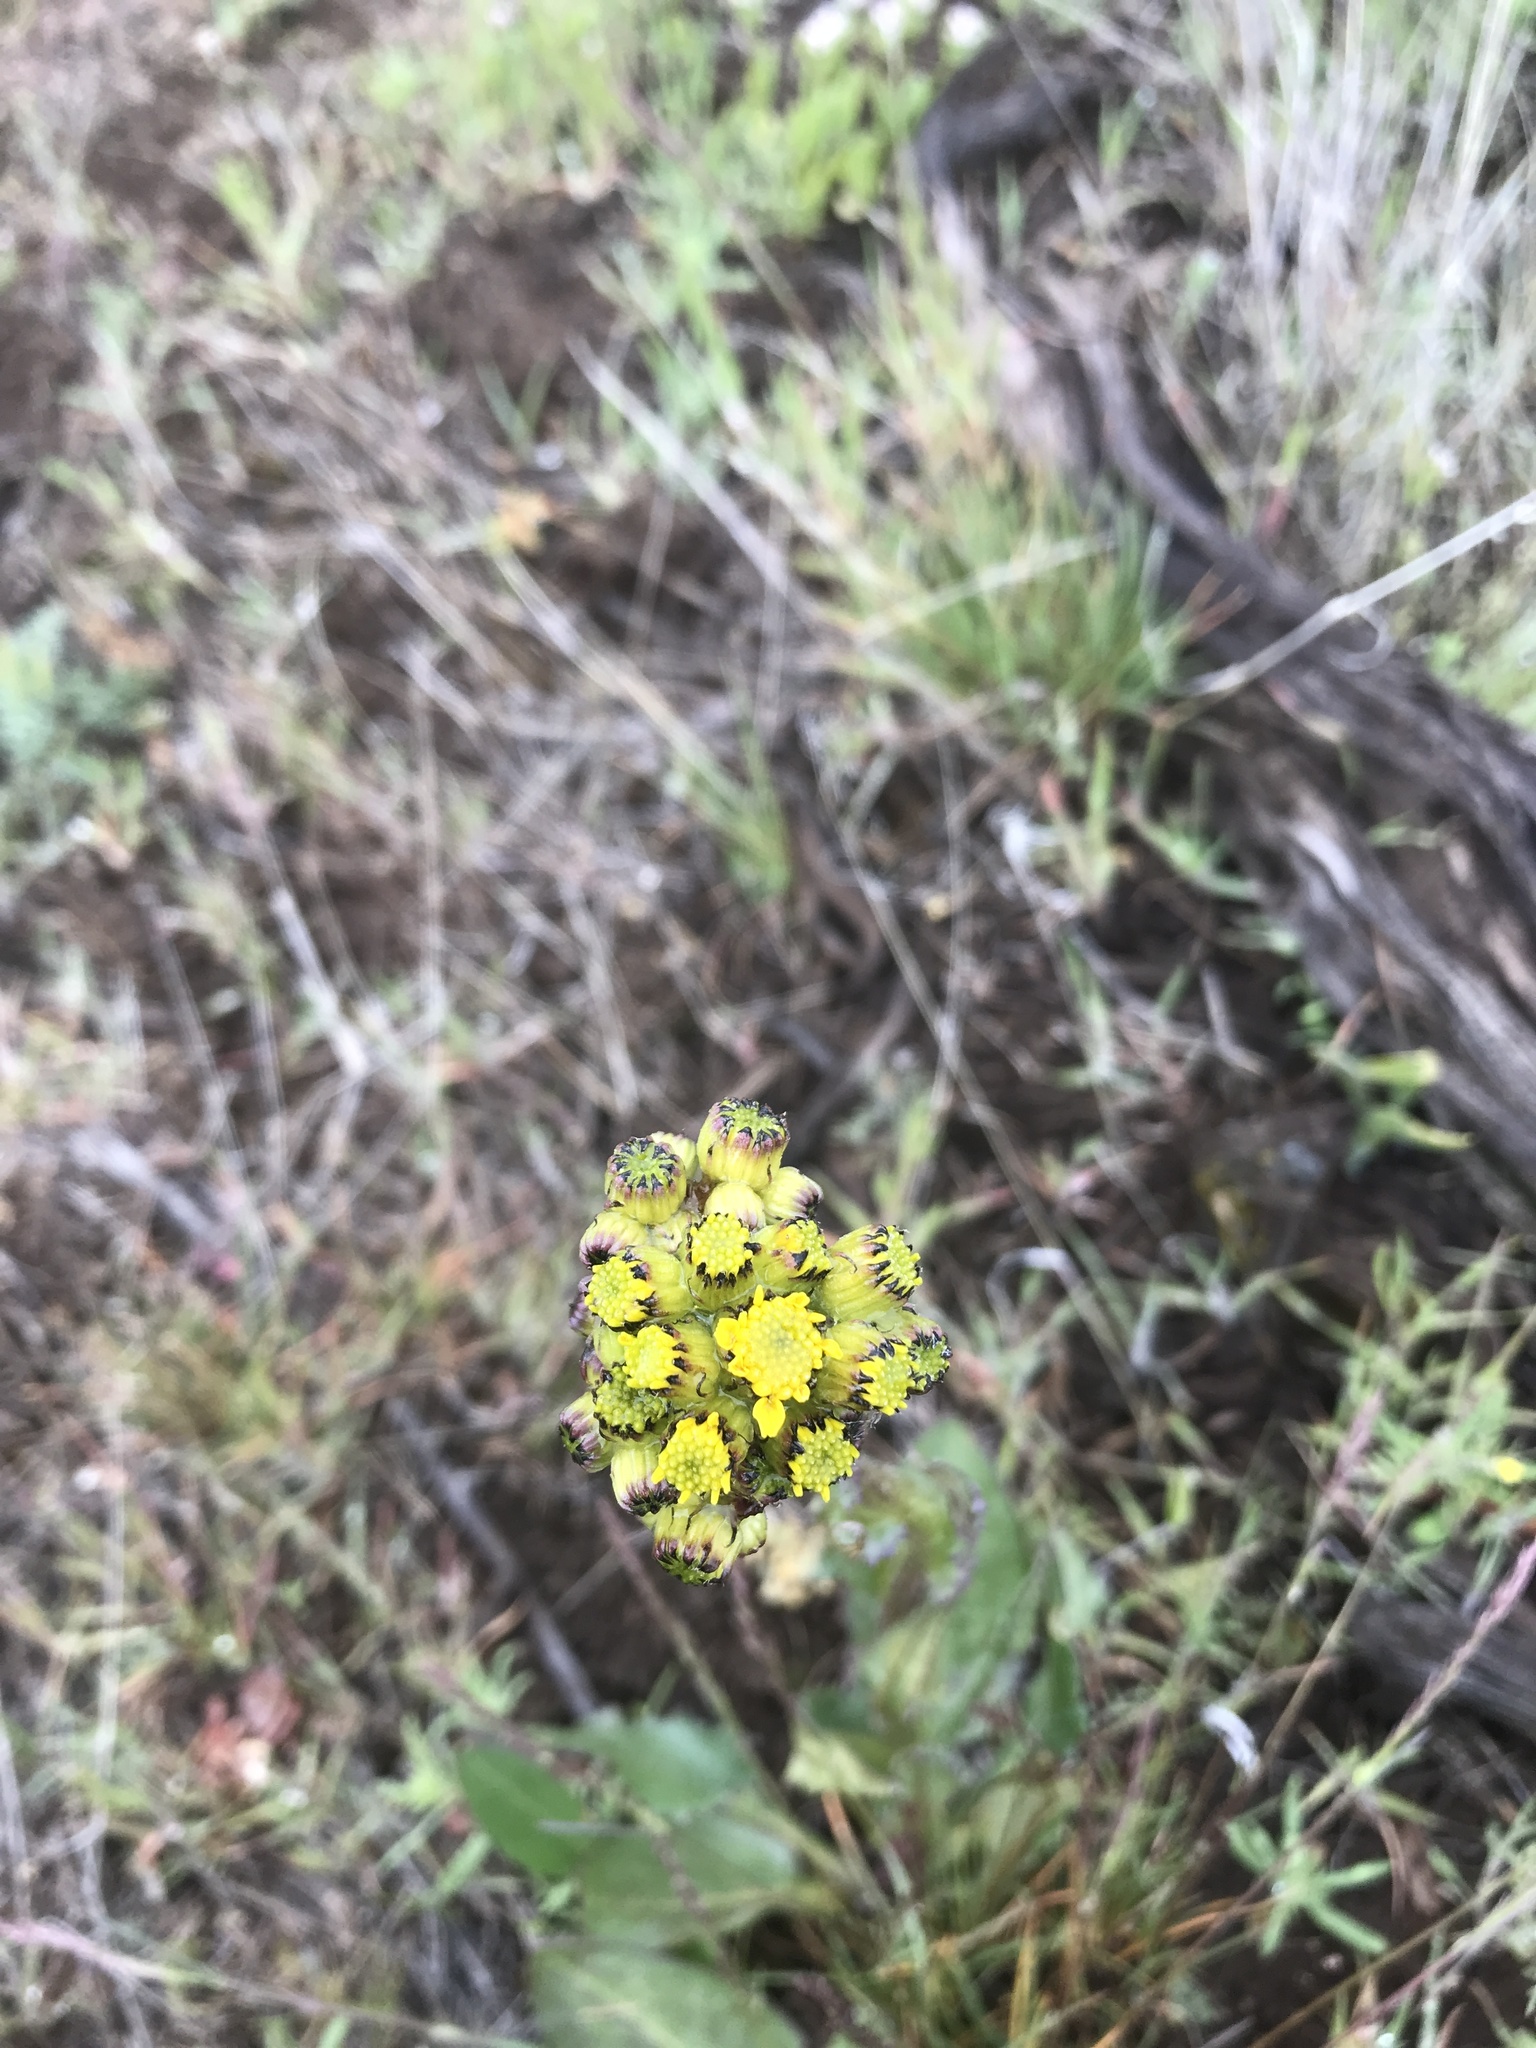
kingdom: Plantae
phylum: Tracheophyta
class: Magnoliopsida
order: Asterales
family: Asteraceae
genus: Senecio
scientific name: Senecio integerrimus
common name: Gaugeplant
